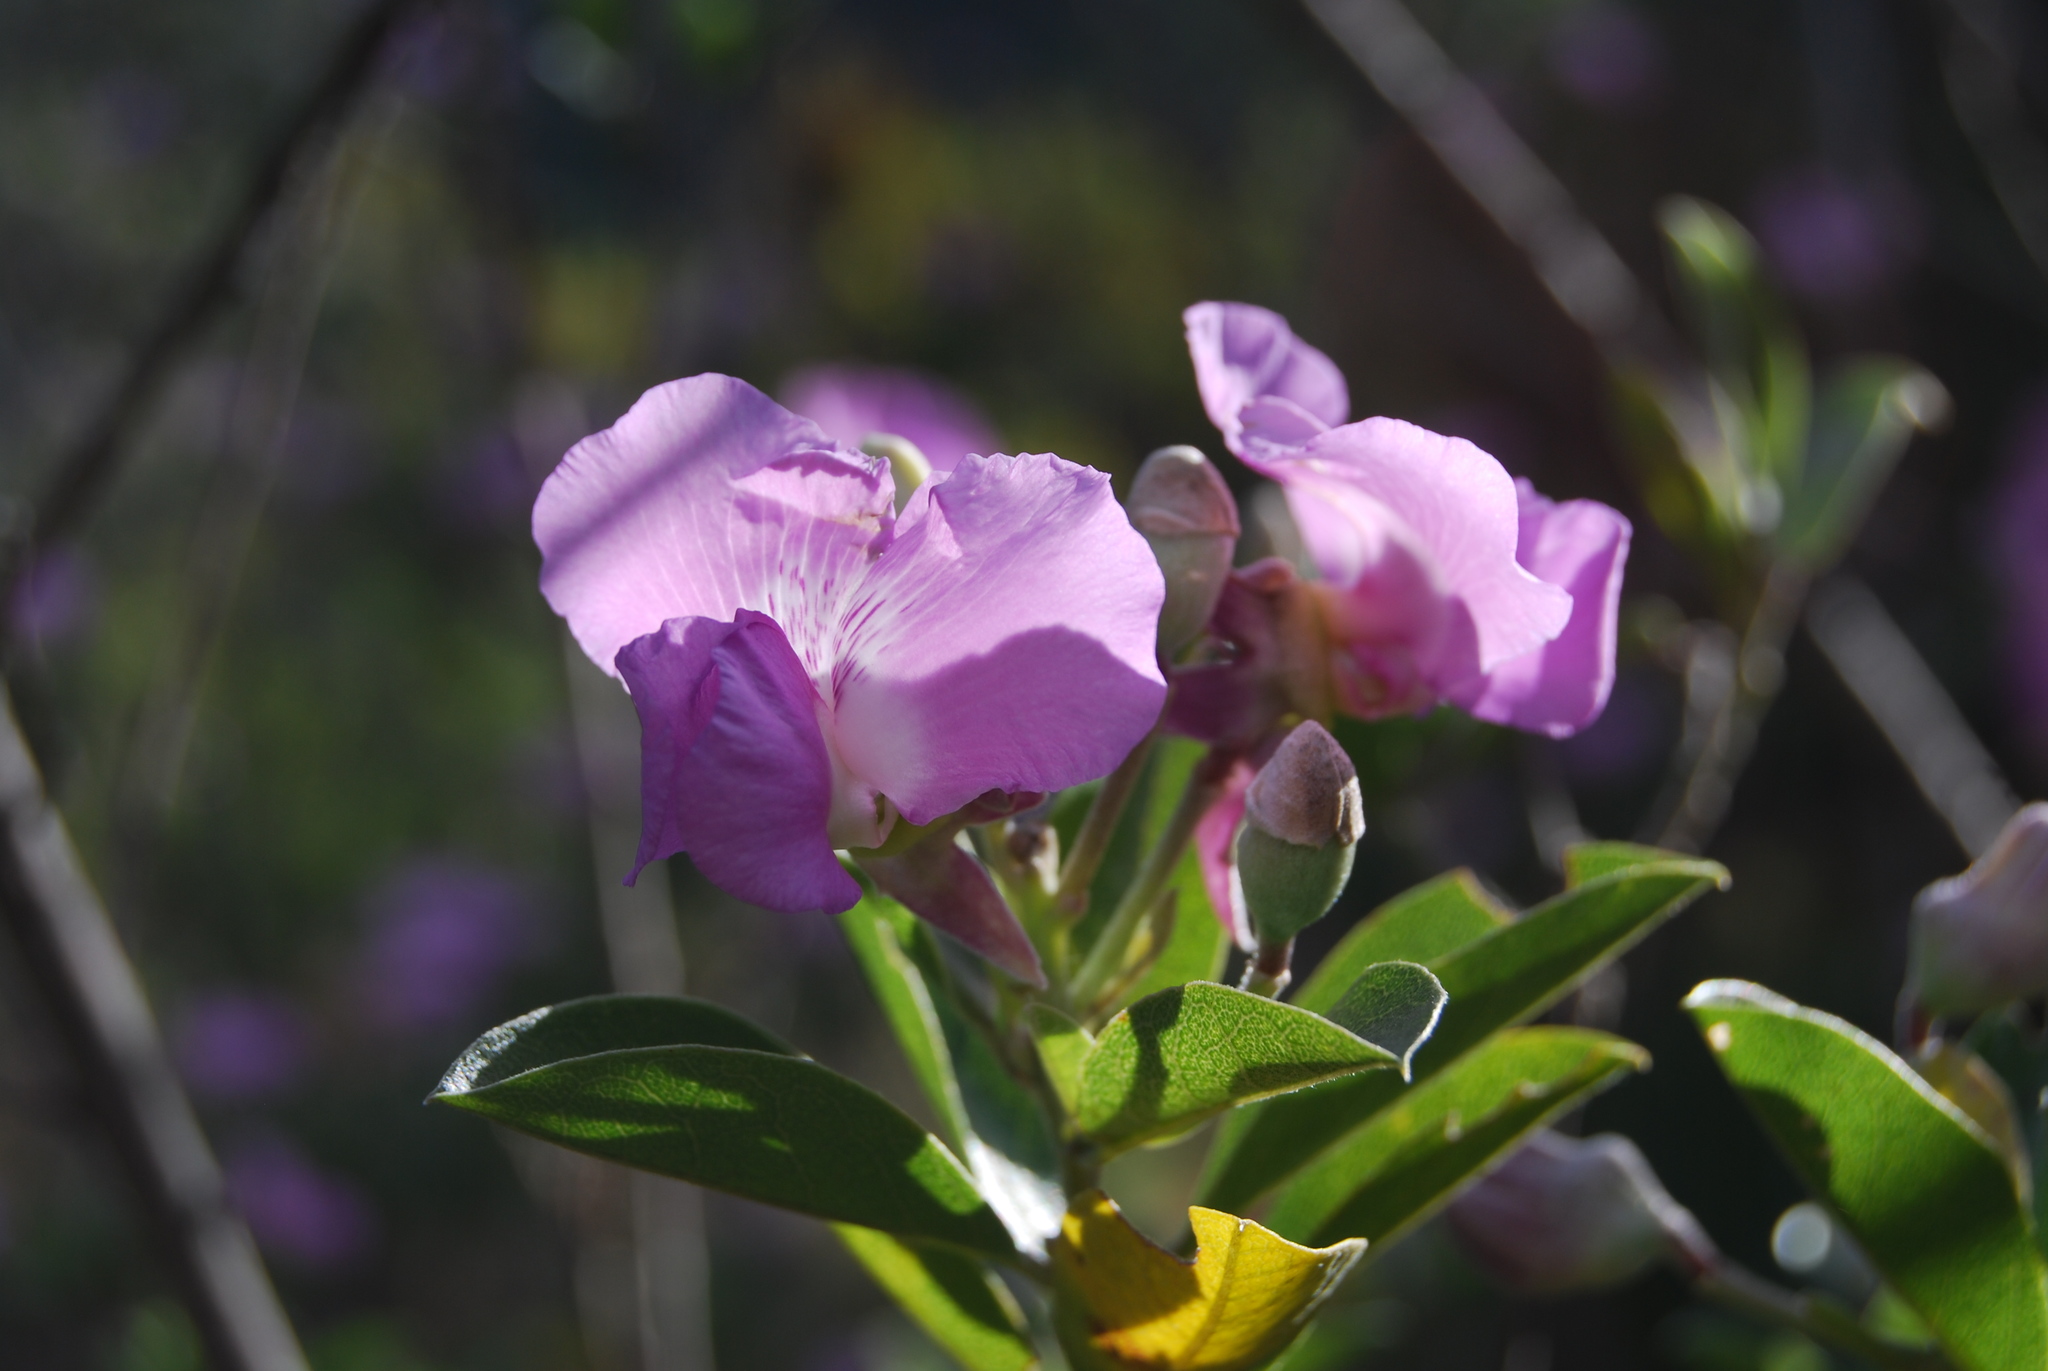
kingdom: Plantae
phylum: Tracheophyta
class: Magnoliopsida
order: Fabales
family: Fabaceae
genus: Podalyria
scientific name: Podalyria calyptrata
